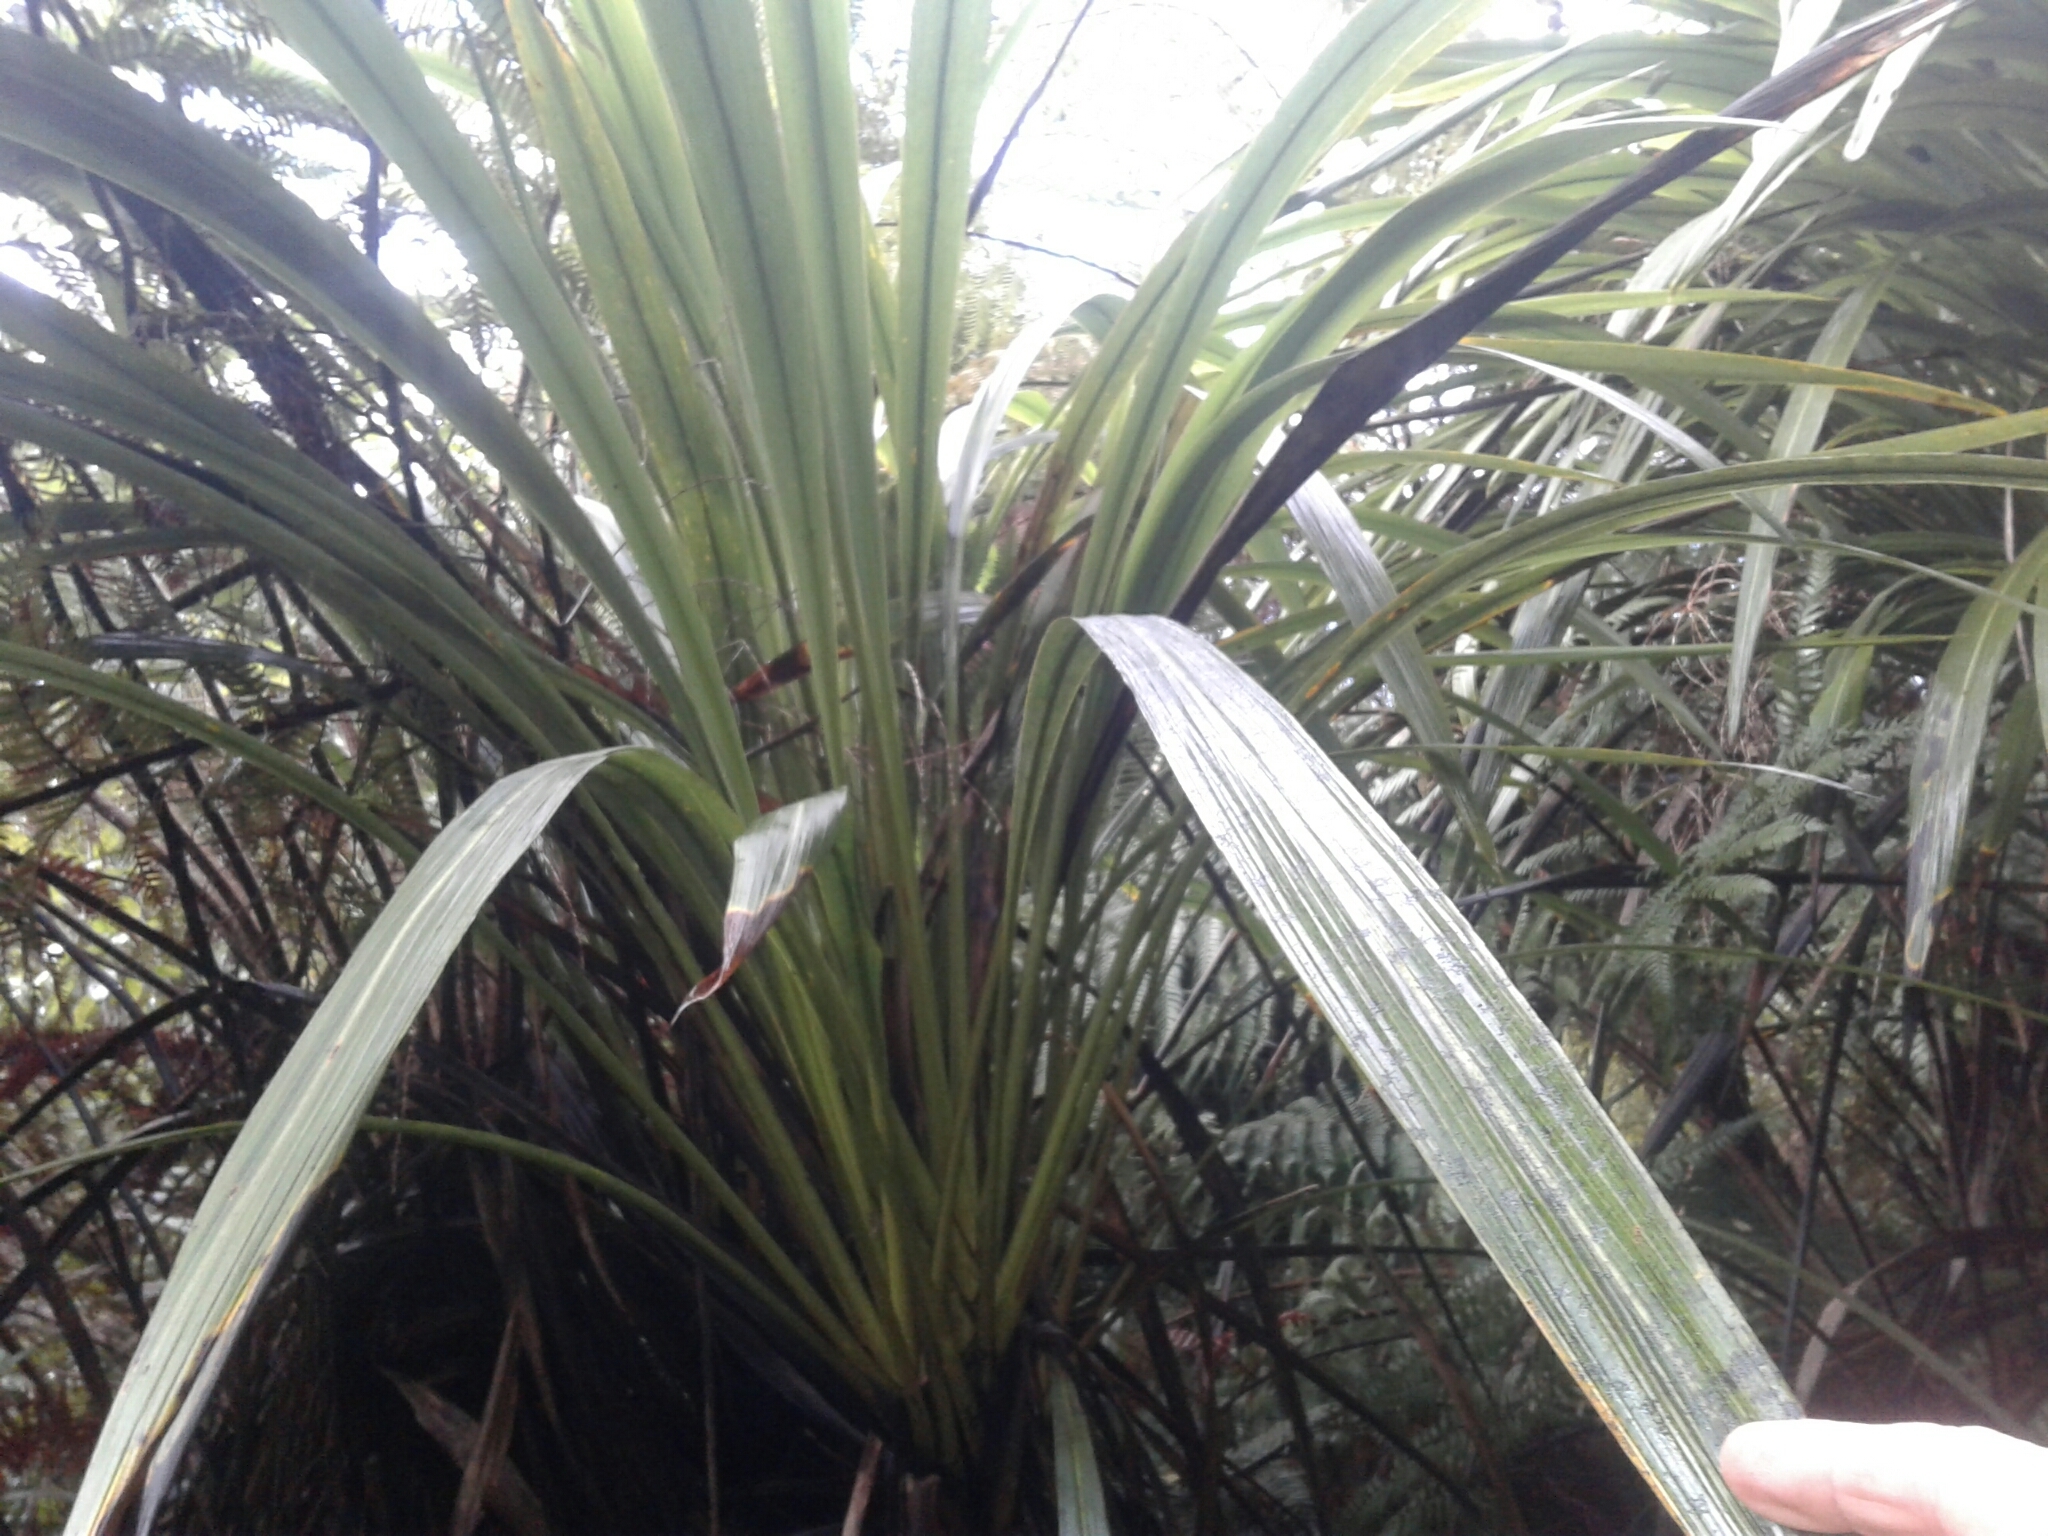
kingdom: Plantae
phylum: Tracheophyta
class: Liliopsida
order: Asparagales
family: Asparagaceae
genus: Cordyline
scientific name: Cordyline banksii
